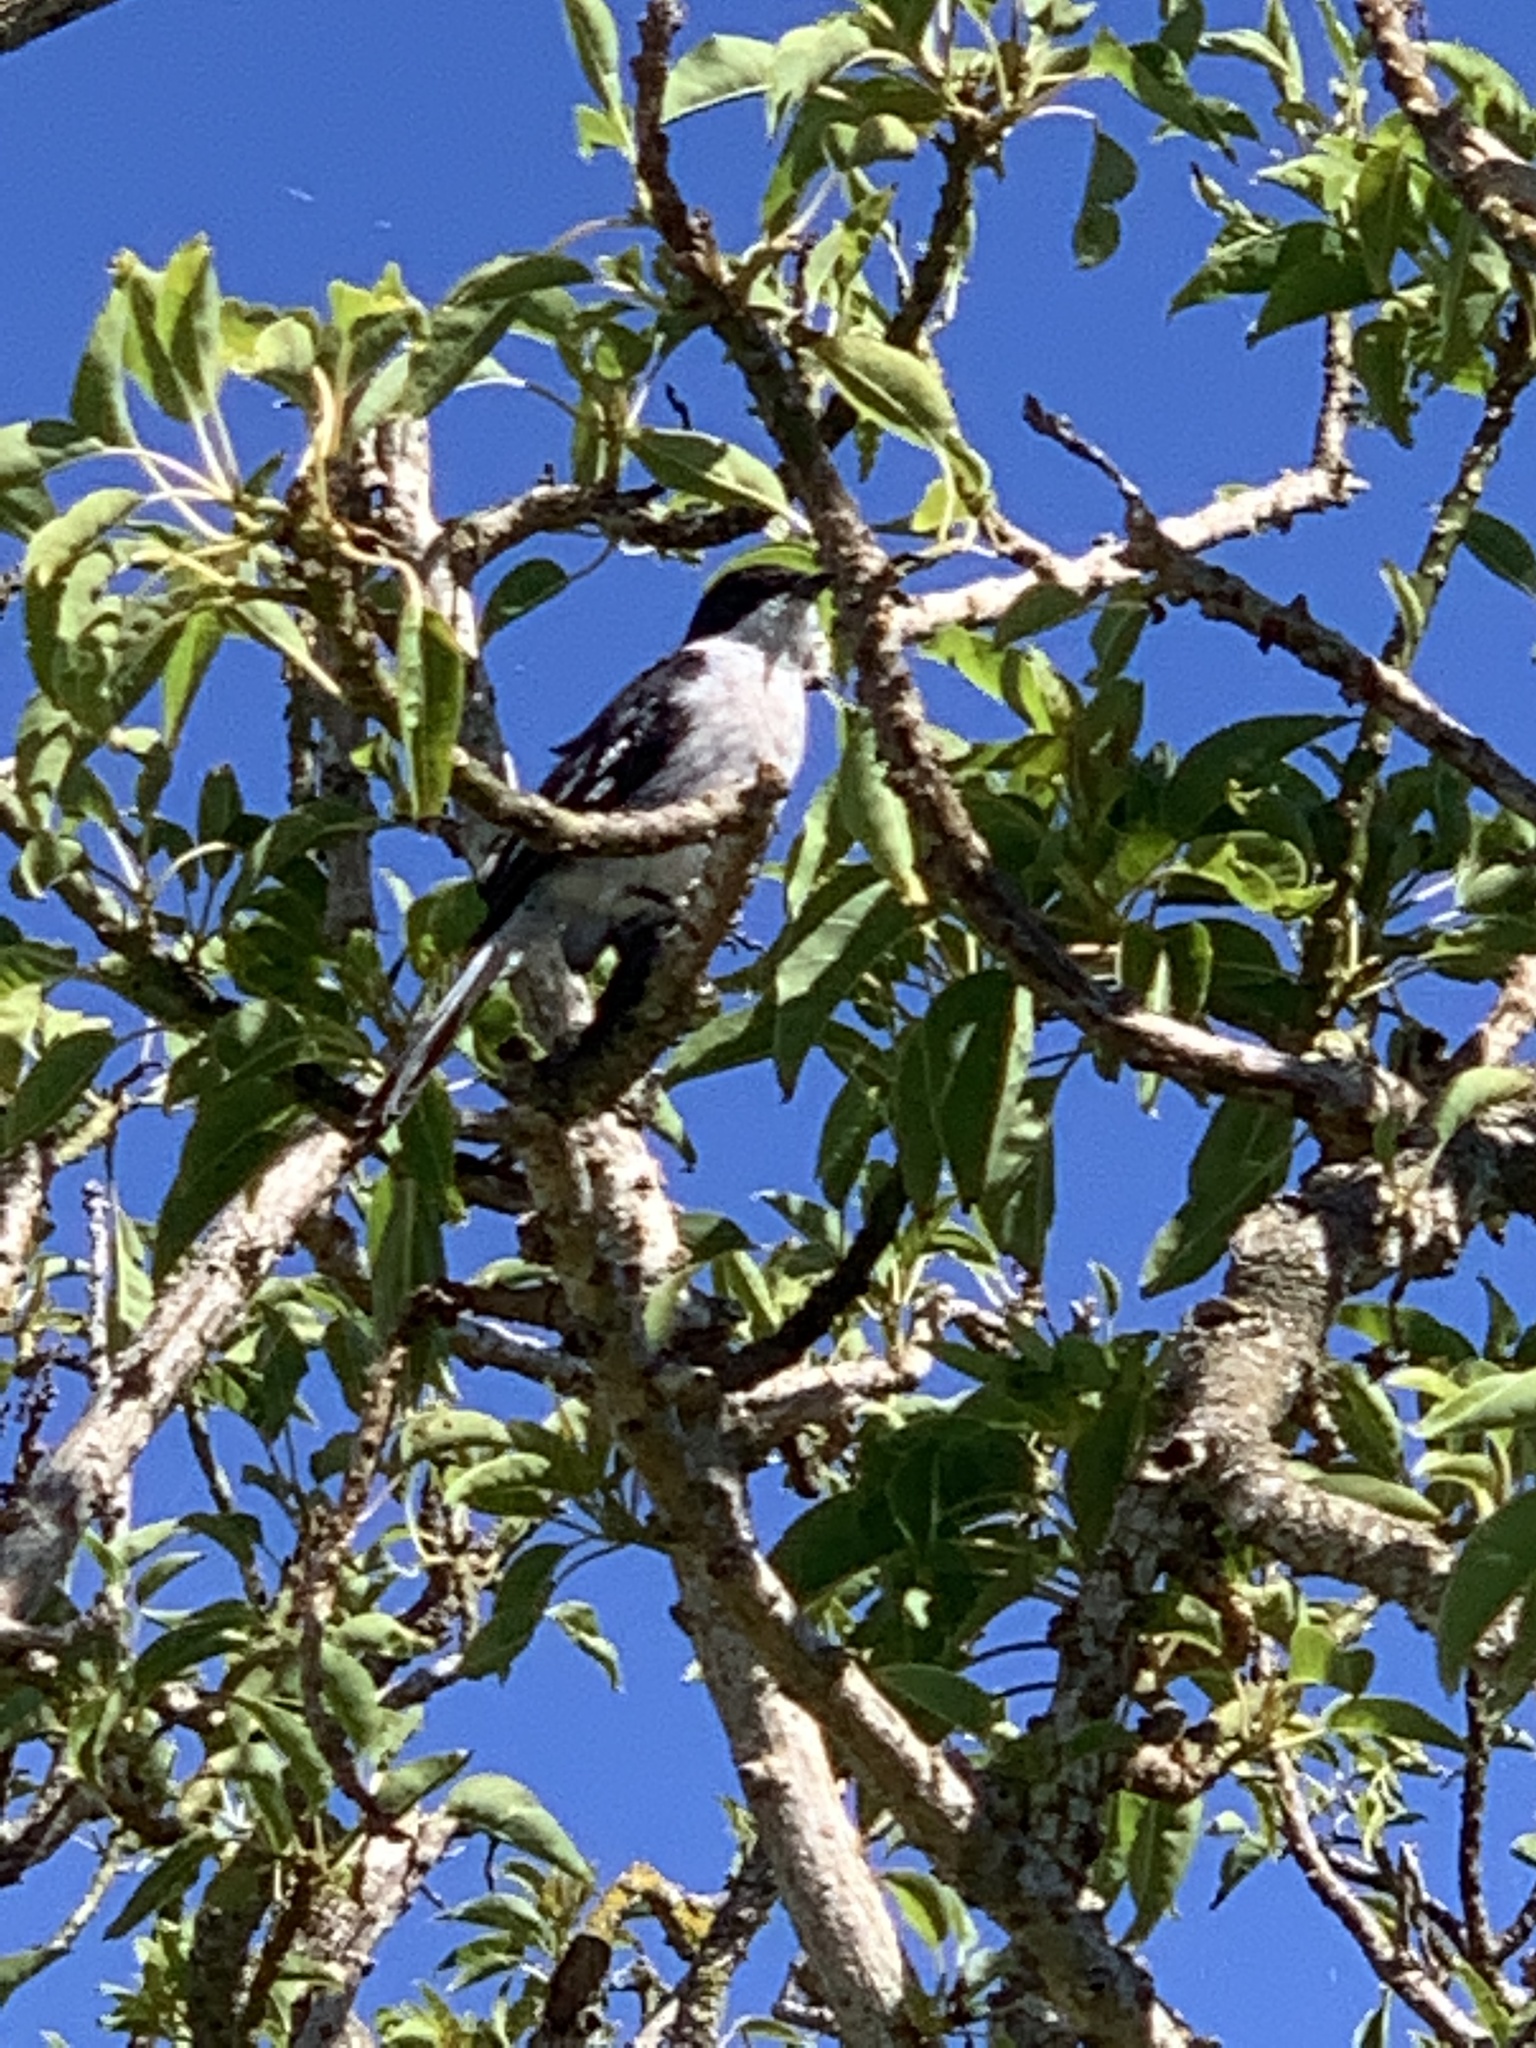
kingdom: Animalia
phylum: Chordata
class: Aves
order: Passeriformes
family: Muscicapidae
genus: Sigelus
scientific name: Sigelus silens
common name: Fiscal flycatcher
